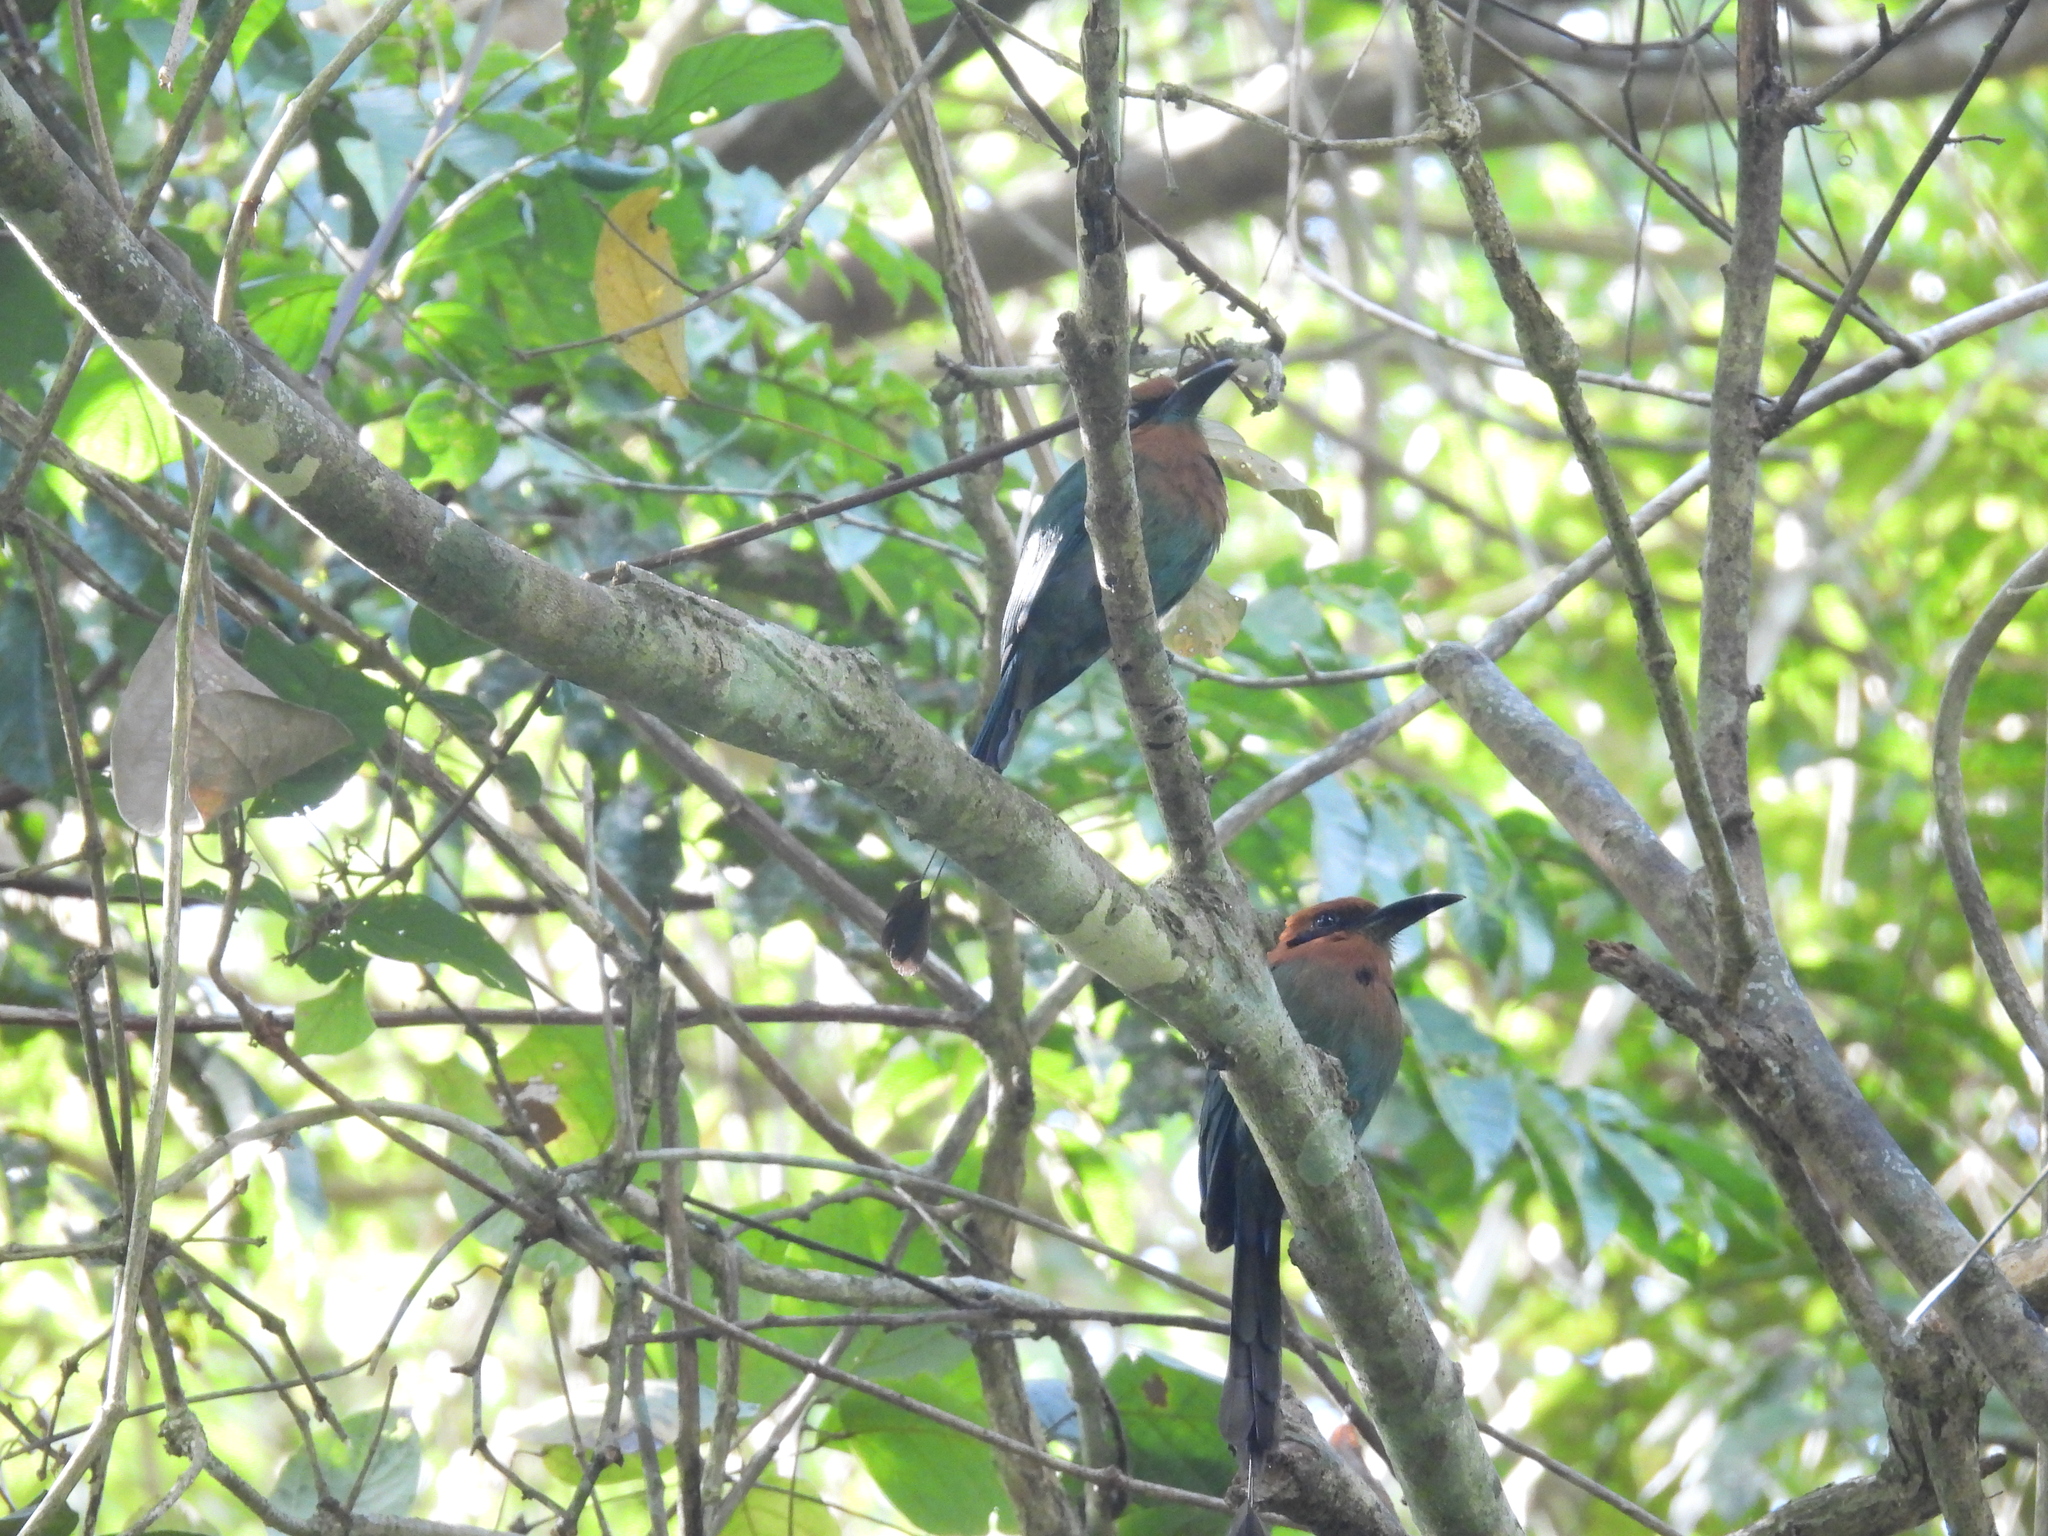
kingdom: Animalia
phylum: Chordata
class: Aves
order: Coraciiformes
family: Momotidae
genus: Electron
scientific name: Electron platyrhynchum
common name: Broad-billed motmot
